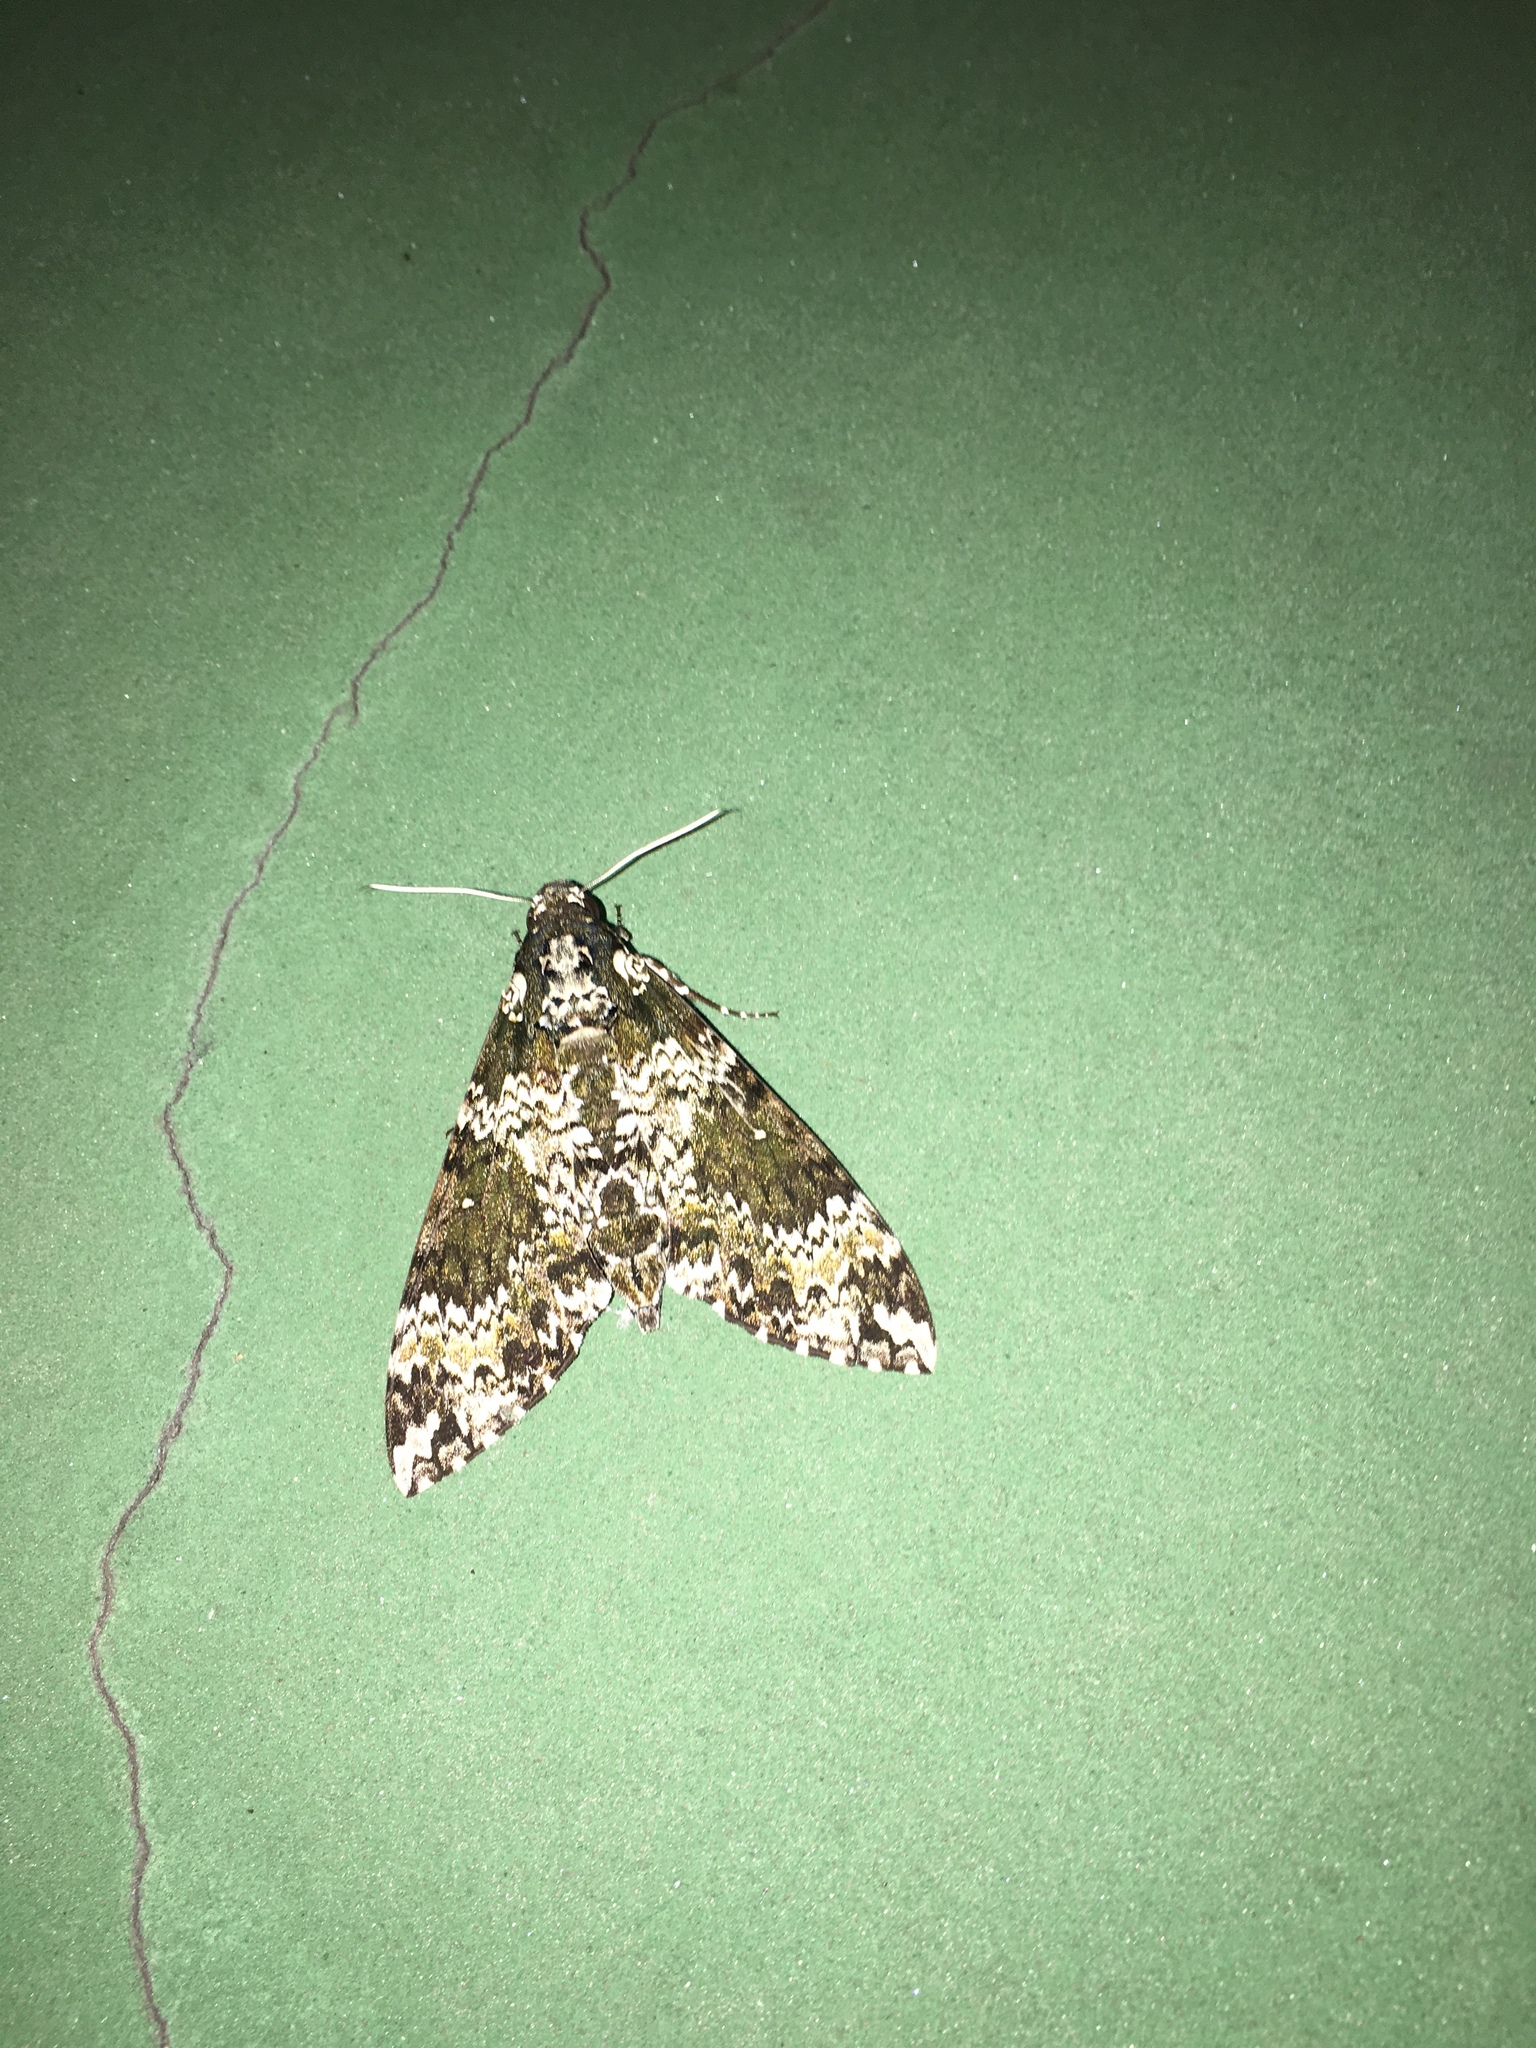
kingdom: Animalia
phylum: Arthropoda
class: Insecta
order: Lepidoptera
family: Sphingidae
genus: Manduca
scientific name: Manduca rustica
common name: Rustic sphinx
